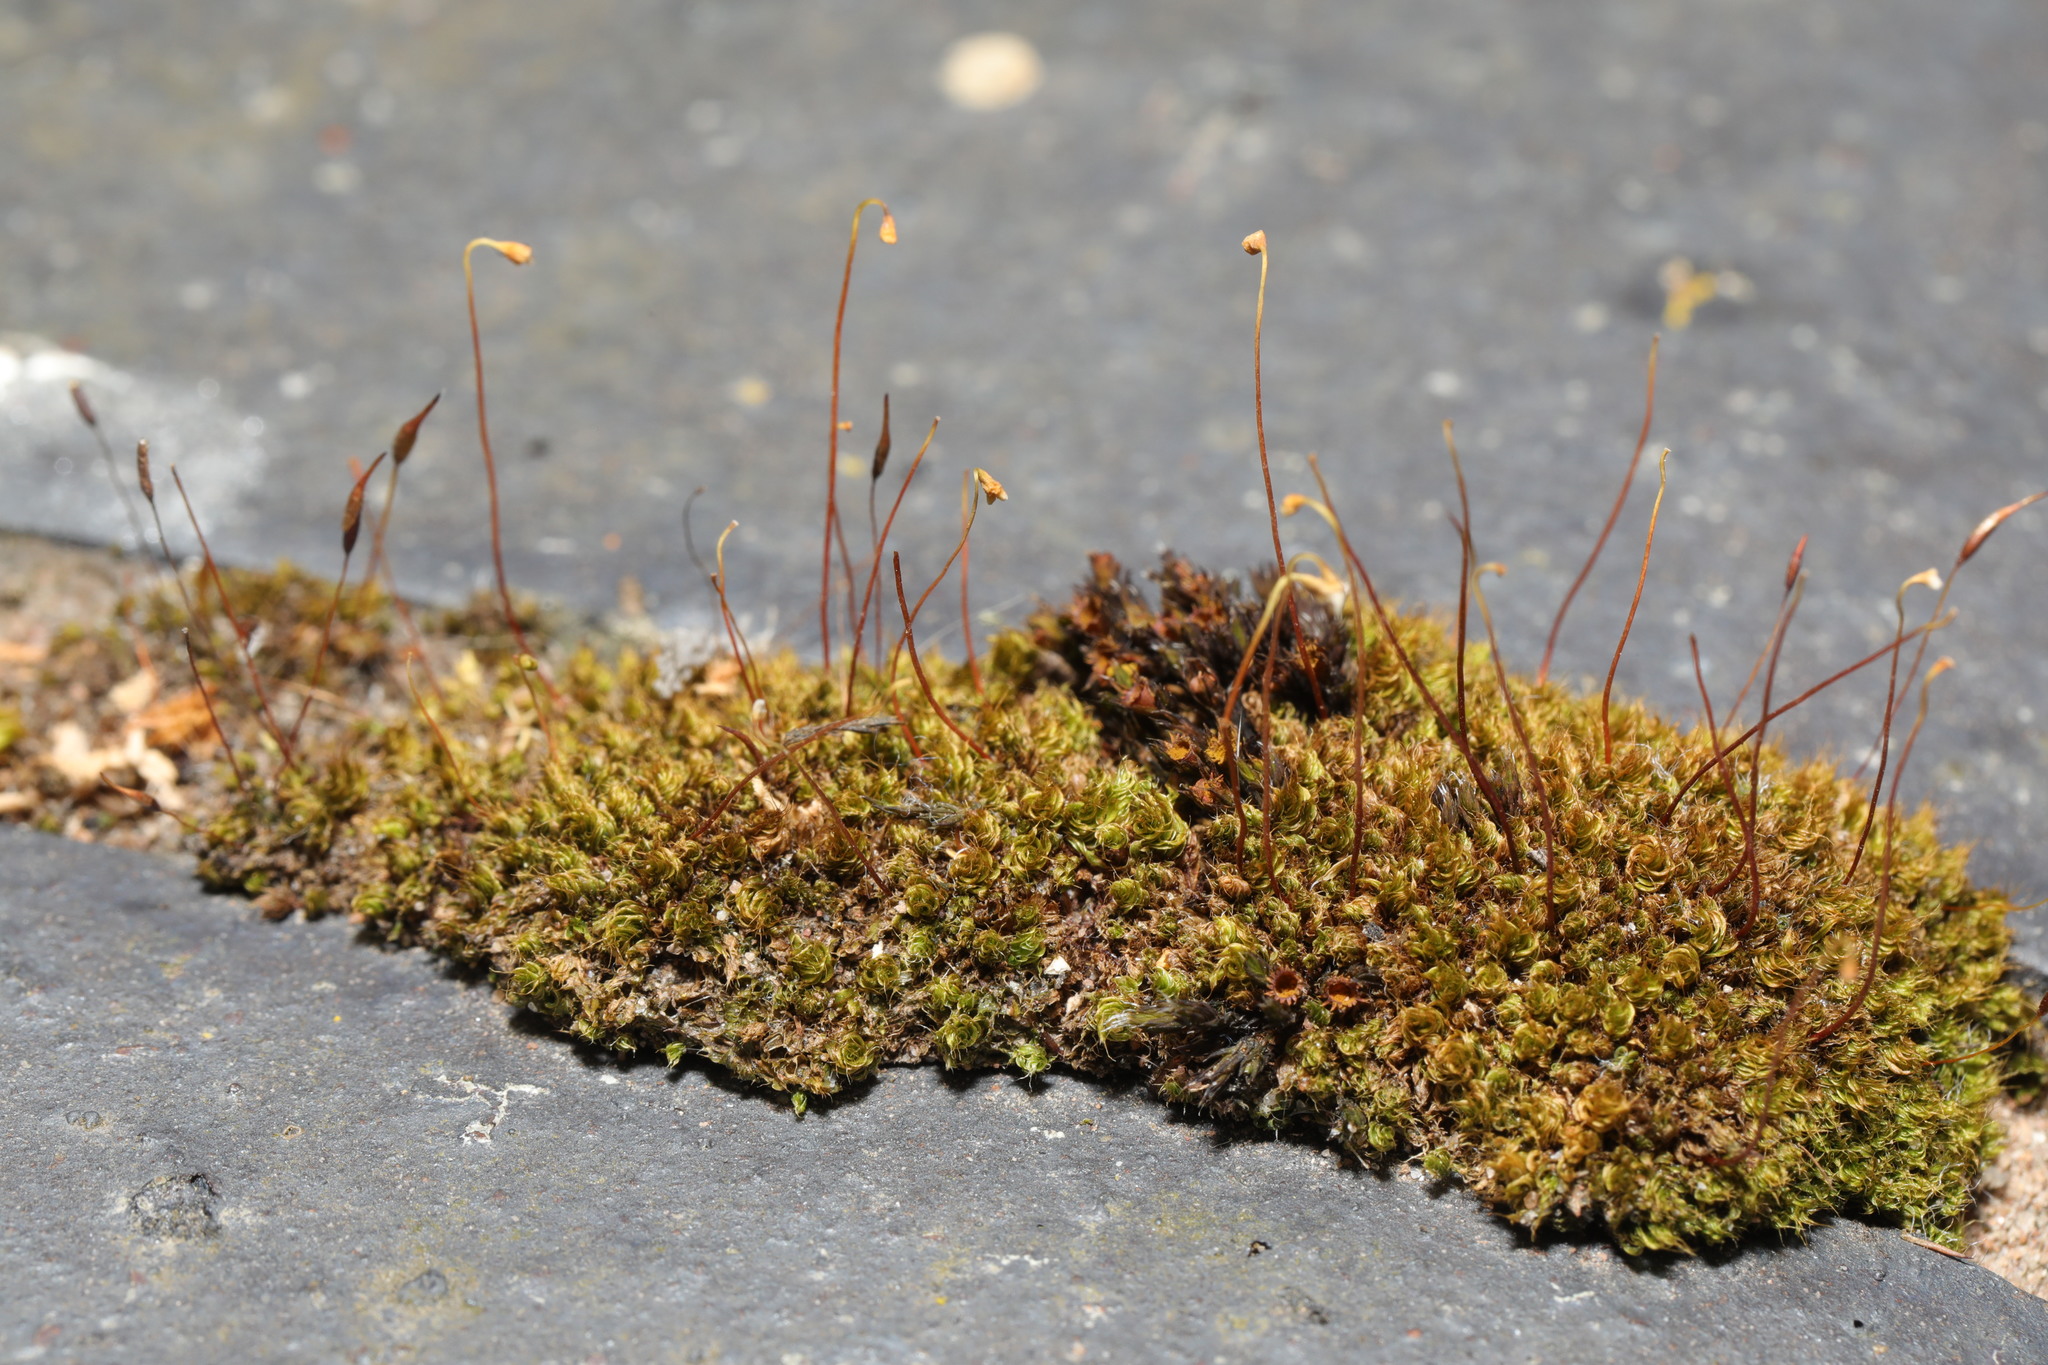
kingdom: Plantae
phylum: Bryophyta
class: Bryopsida
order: Bryales
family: Bryaceae
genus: Rosulabryum
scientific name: Rosulabryum capillare
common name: Capillary thread-moss
